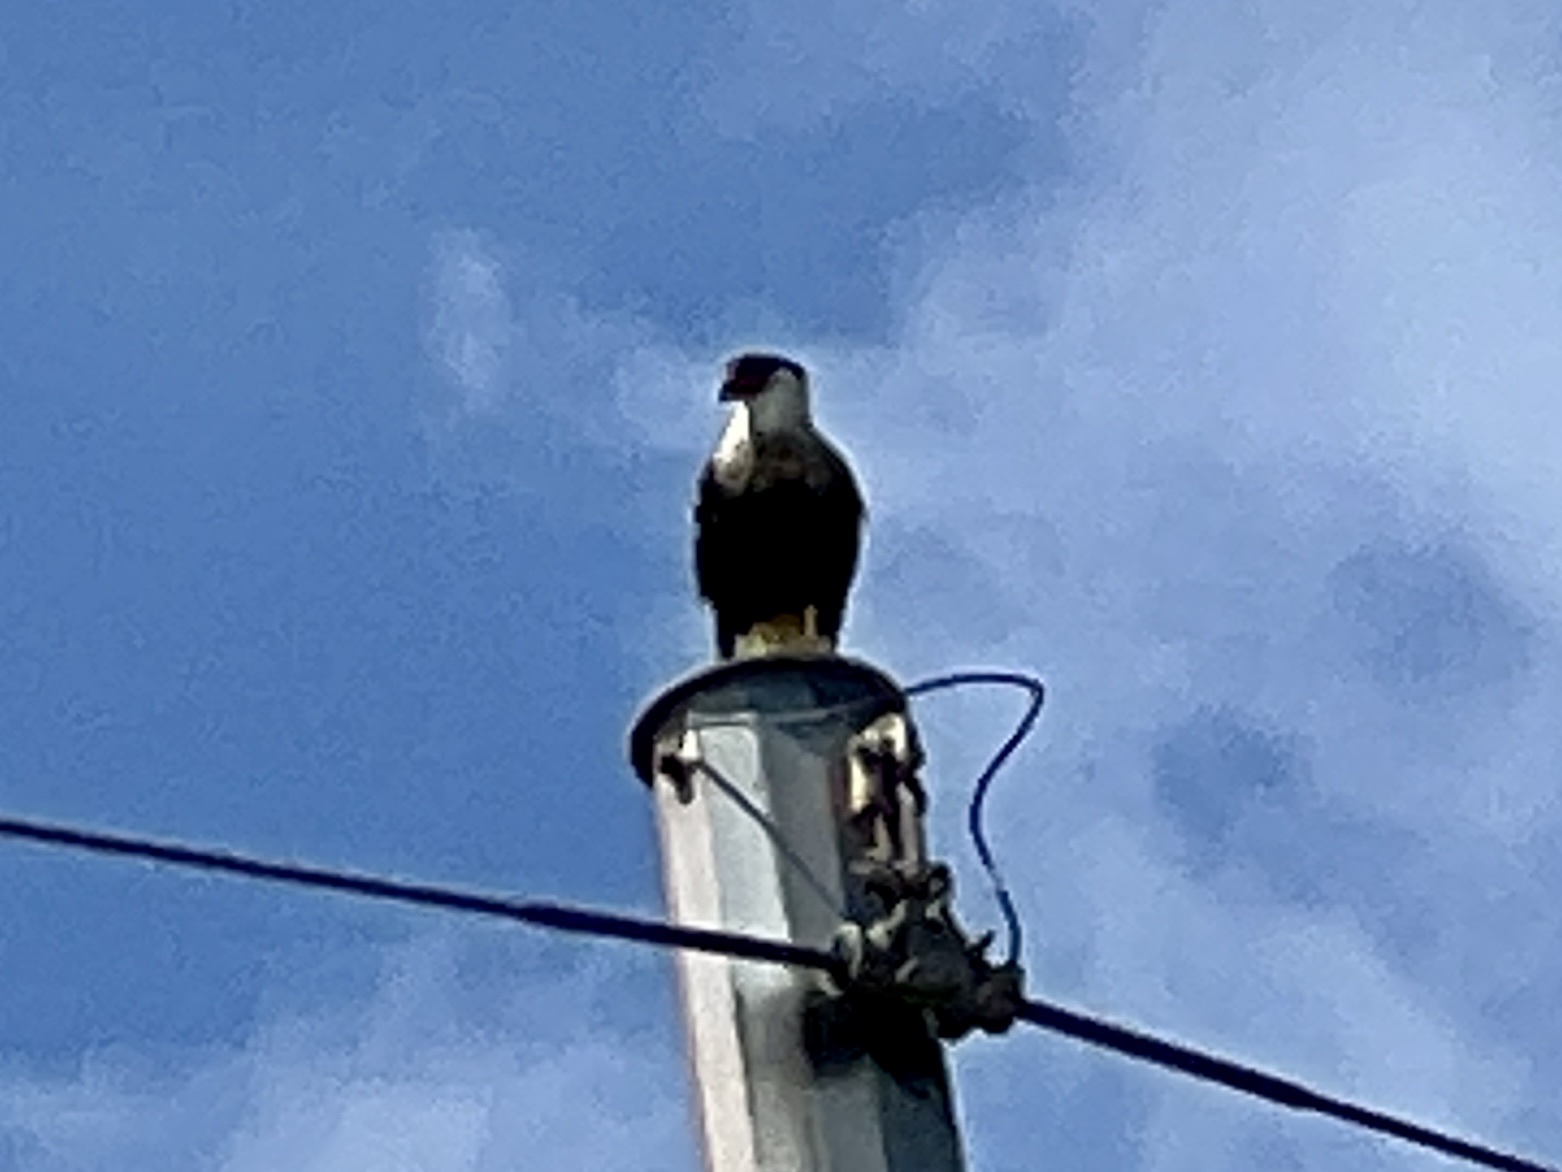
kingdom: Animalia
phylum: Chordata
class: Aves
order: Falconiformes
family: Falconidae
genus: Caracara
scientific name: Caracara plancus
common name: Southern caracara
